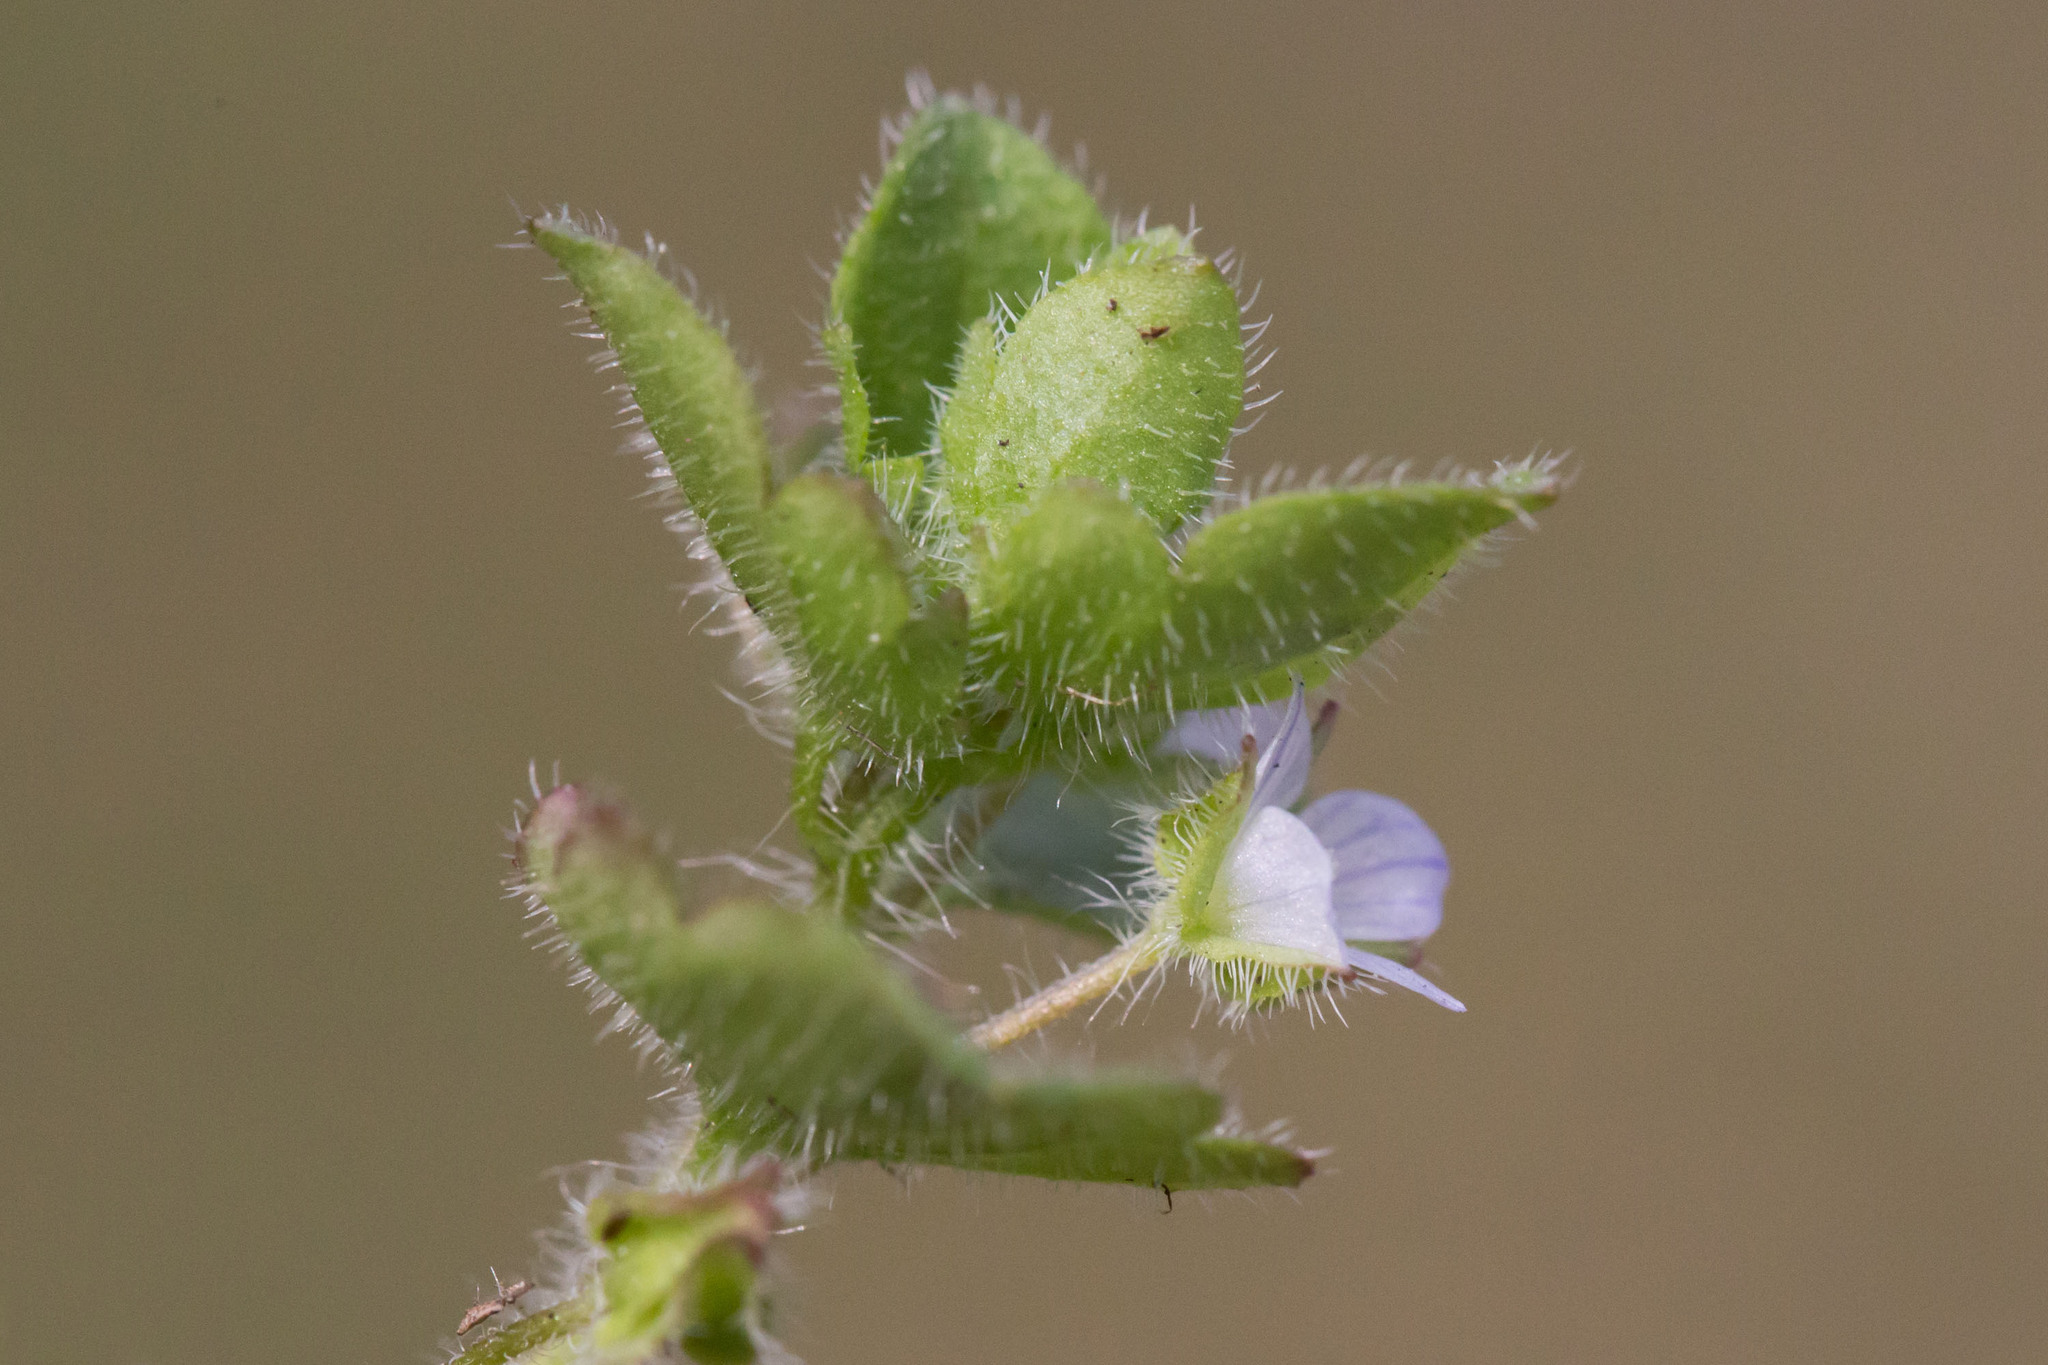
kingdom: Plantae
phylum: Tracheophyta
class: Magnoliopsida
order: Lamiales
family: Plantaginaceae
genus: Veronica
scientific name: Veronica sublobata
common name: False ivy-leaved speedwell
